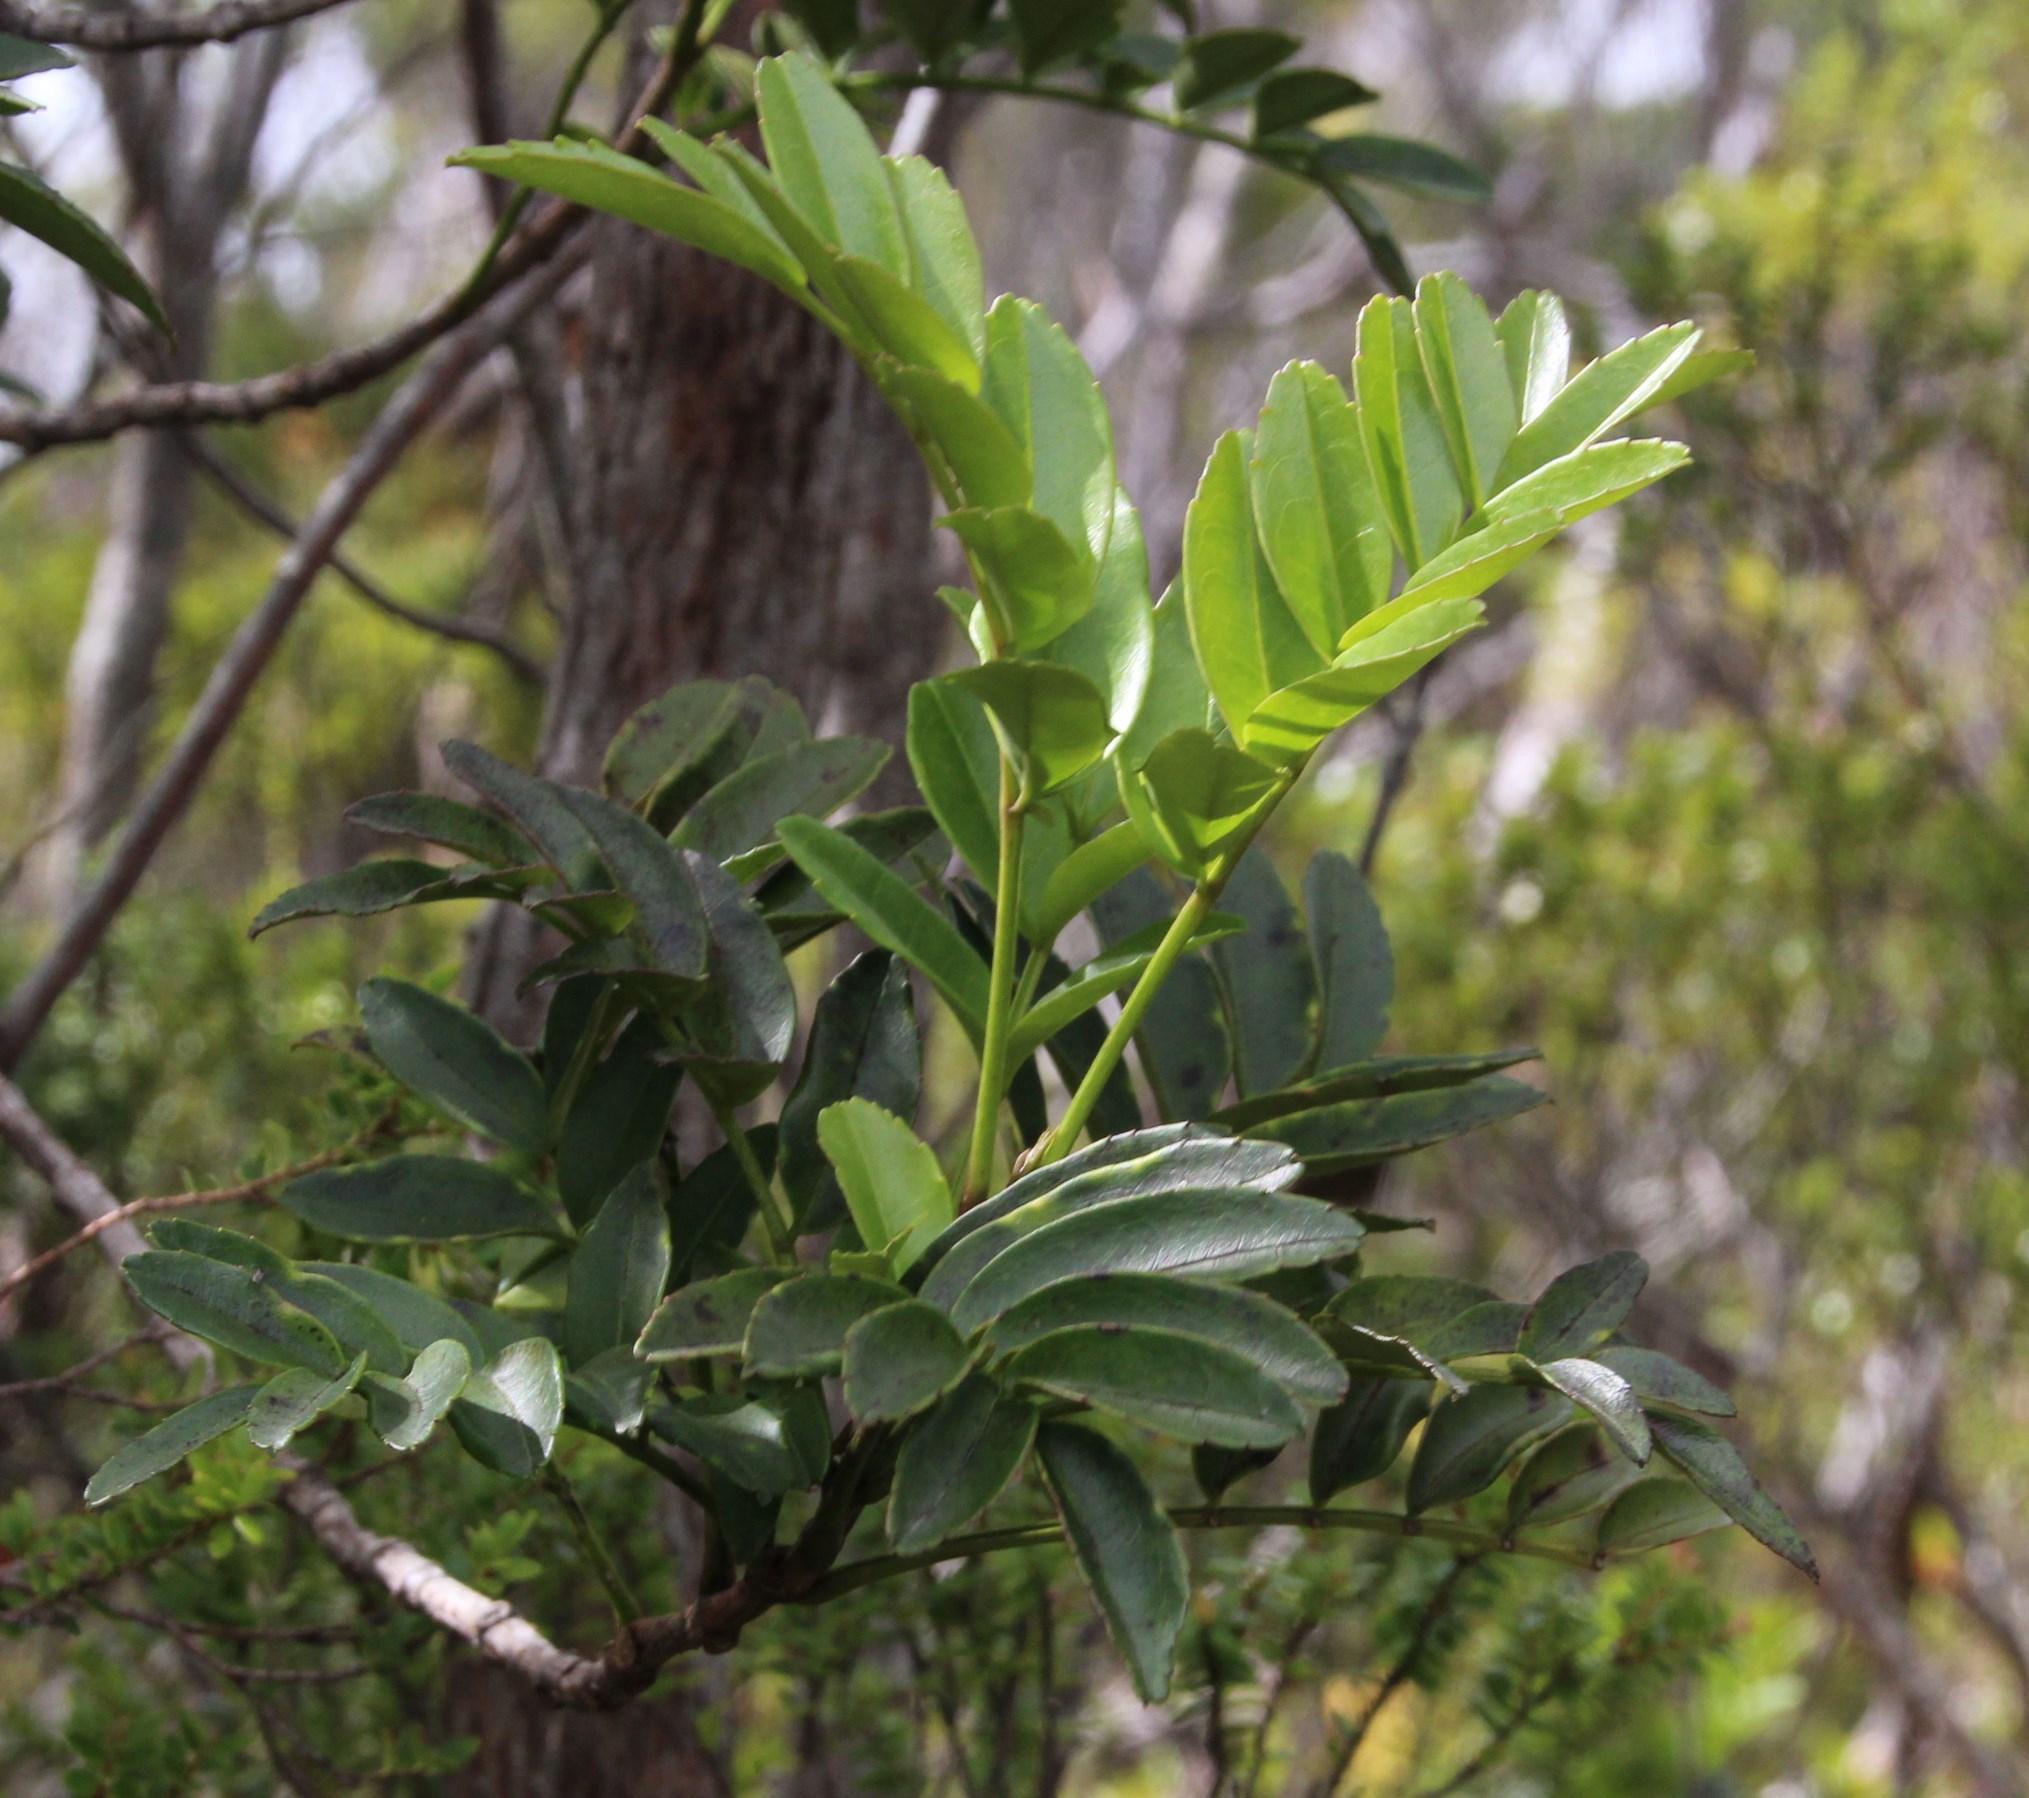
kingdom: Plantae
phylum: Tracheophyta
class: Magnoliopsida
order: Lamiales
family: Bignoniaceae
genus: Campsidium
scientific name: Campsidium valdivianum
